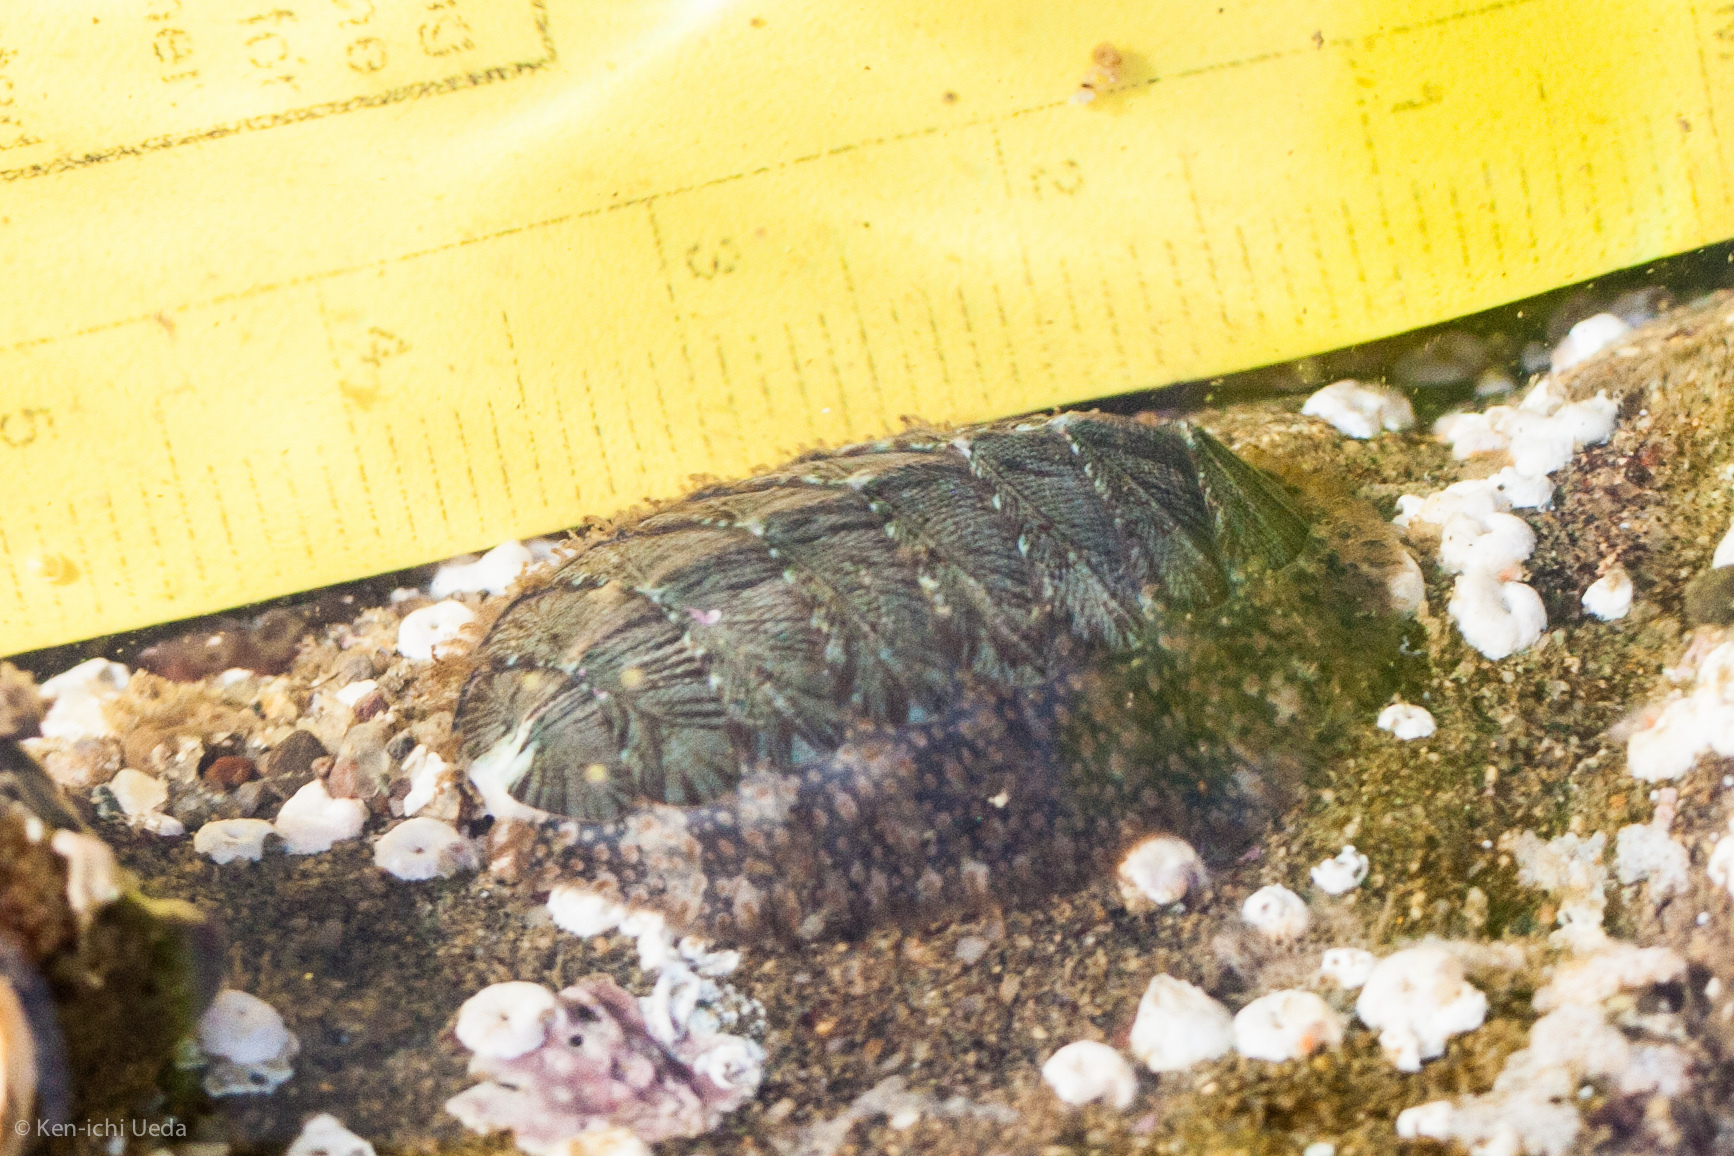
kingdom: Animalia
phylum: Mollusca
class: Polyplacophora
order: Chitonida
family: Mopaliidae
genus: Mopalia
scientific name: Mopalia lignosa
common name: Woody chiton
